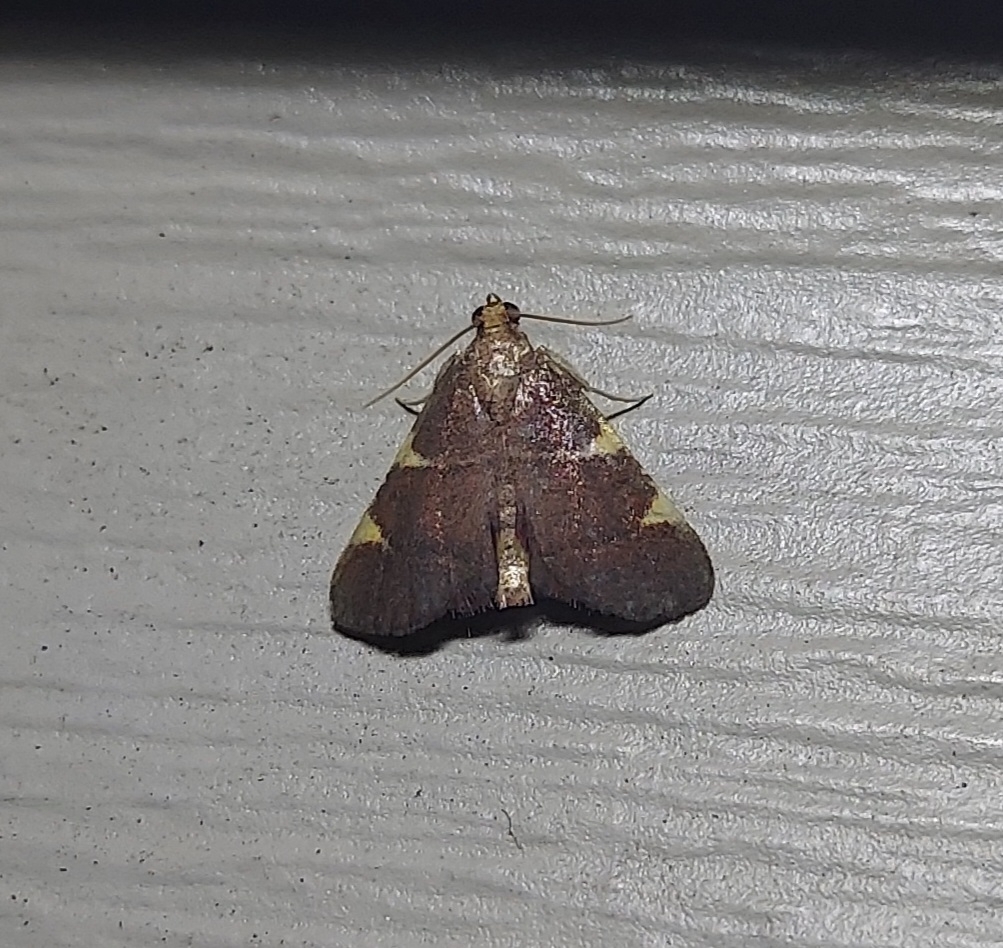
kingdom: Animalia
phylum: Arthropoda
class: Insecta
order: Lepidoptera
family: Pyralidae
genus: Hypsopygia
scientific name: Hypsopygia olinalis
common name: Yellow-fringed dolichomia moth
